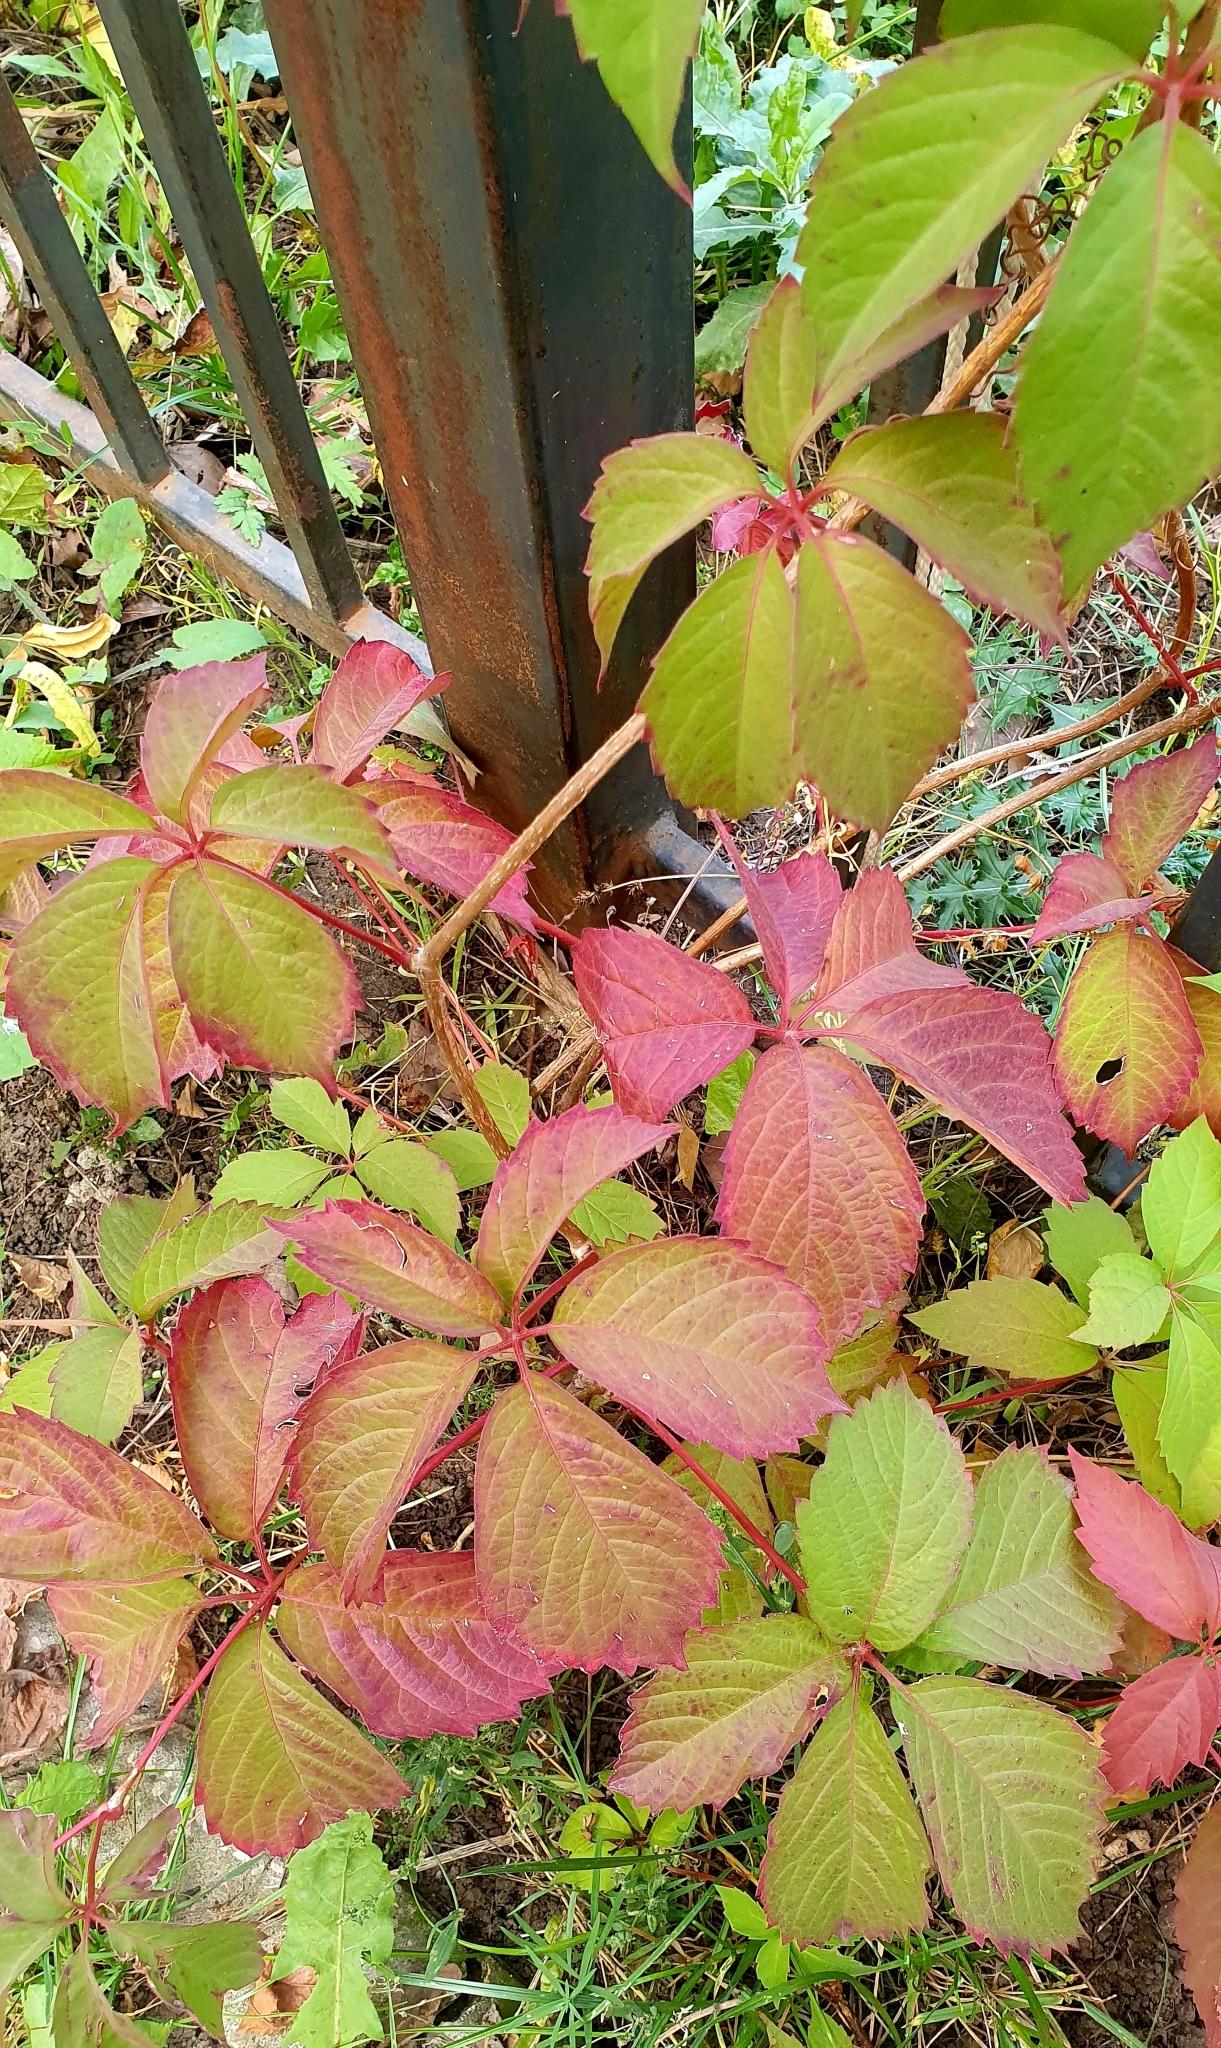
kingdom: Plantae
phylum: Tracheophyta
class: Magnoliopsida
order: Vitales
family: Vitaceae
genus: Parthenocissus
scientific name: Parthenocissus inserta
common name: False virginia-creeper
